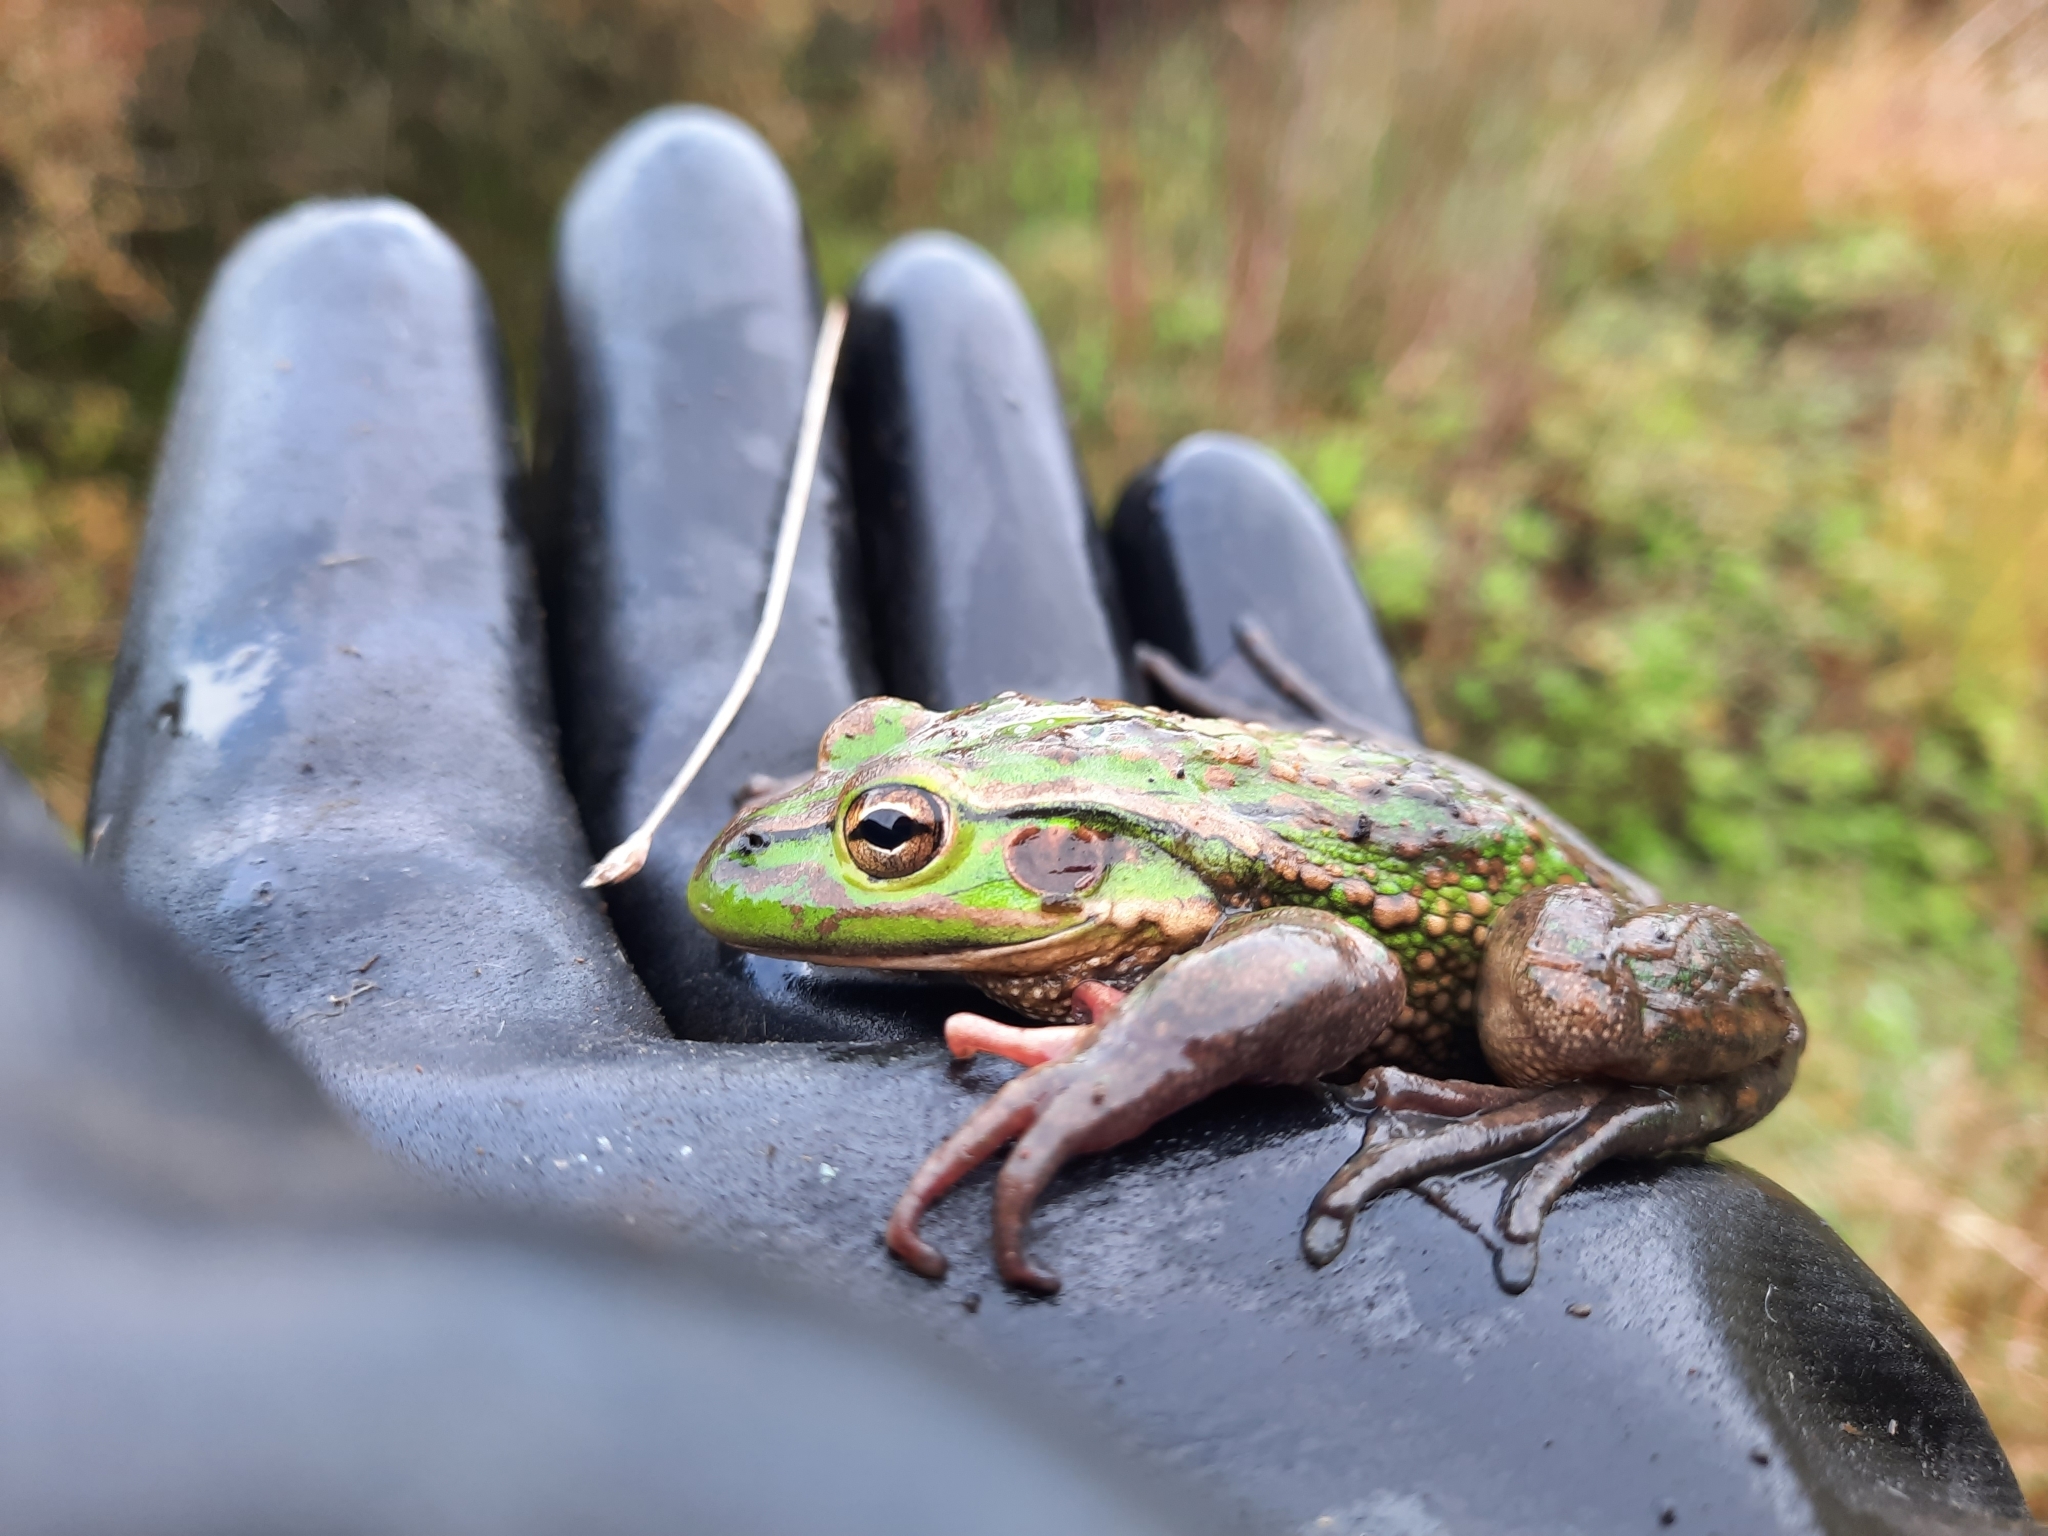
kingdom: Animalia
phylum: Chordata
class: Amphibia
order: Anura
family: Pelodryadidae
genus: Ranoidea
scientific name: Ranoidea raniformis
